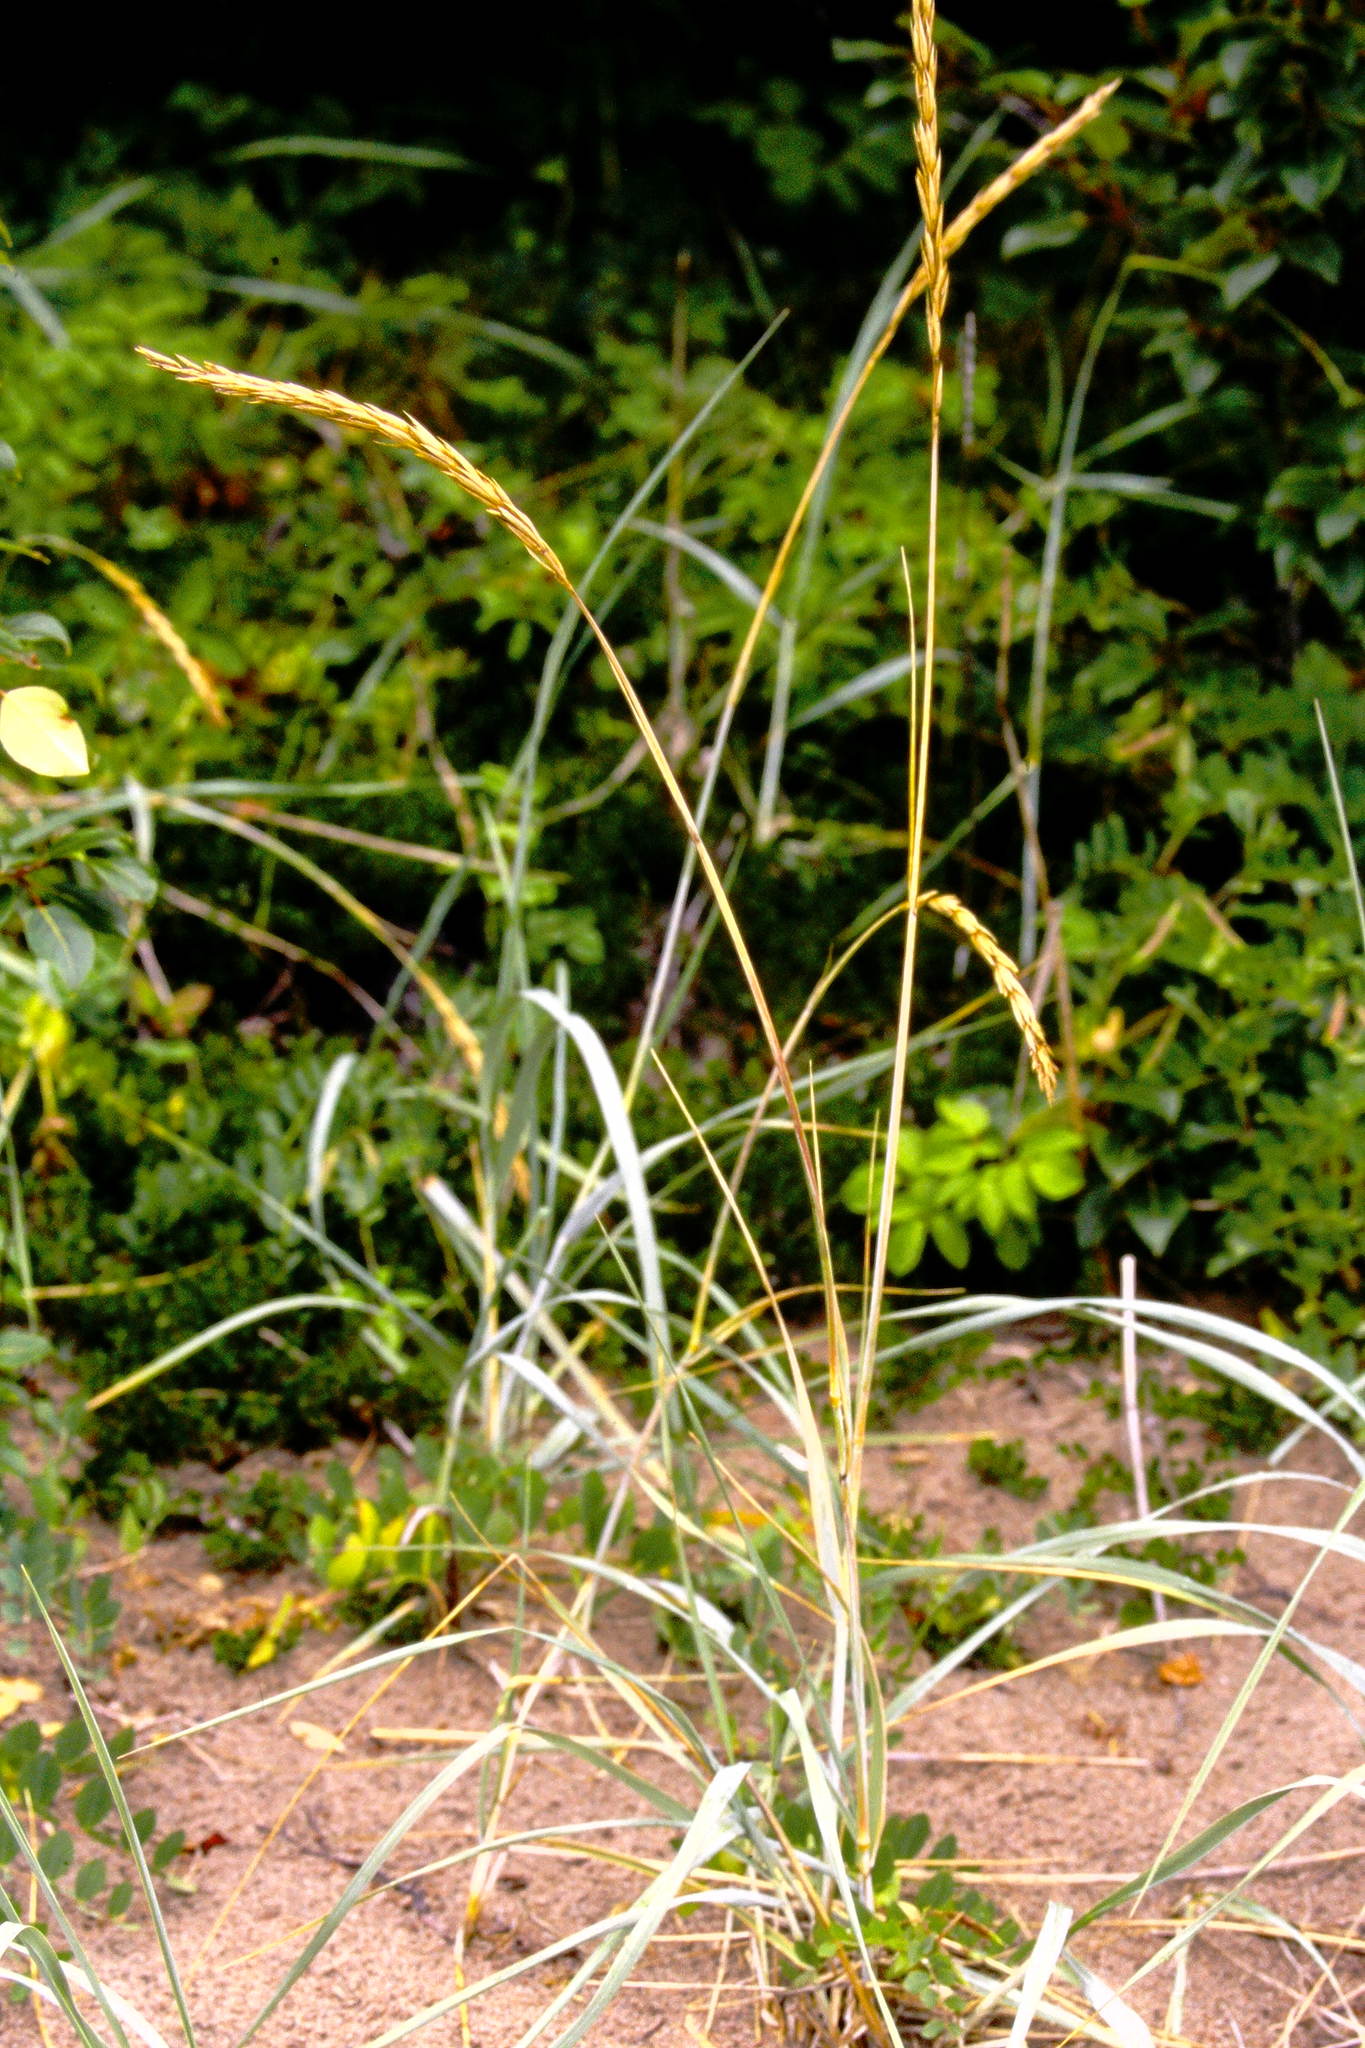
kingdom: Plantae
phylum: Tracheophyta
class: Liliopsida
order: Poales
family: Poaceae
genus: Leymus
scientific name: Leymus mollis
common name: American dune grass
